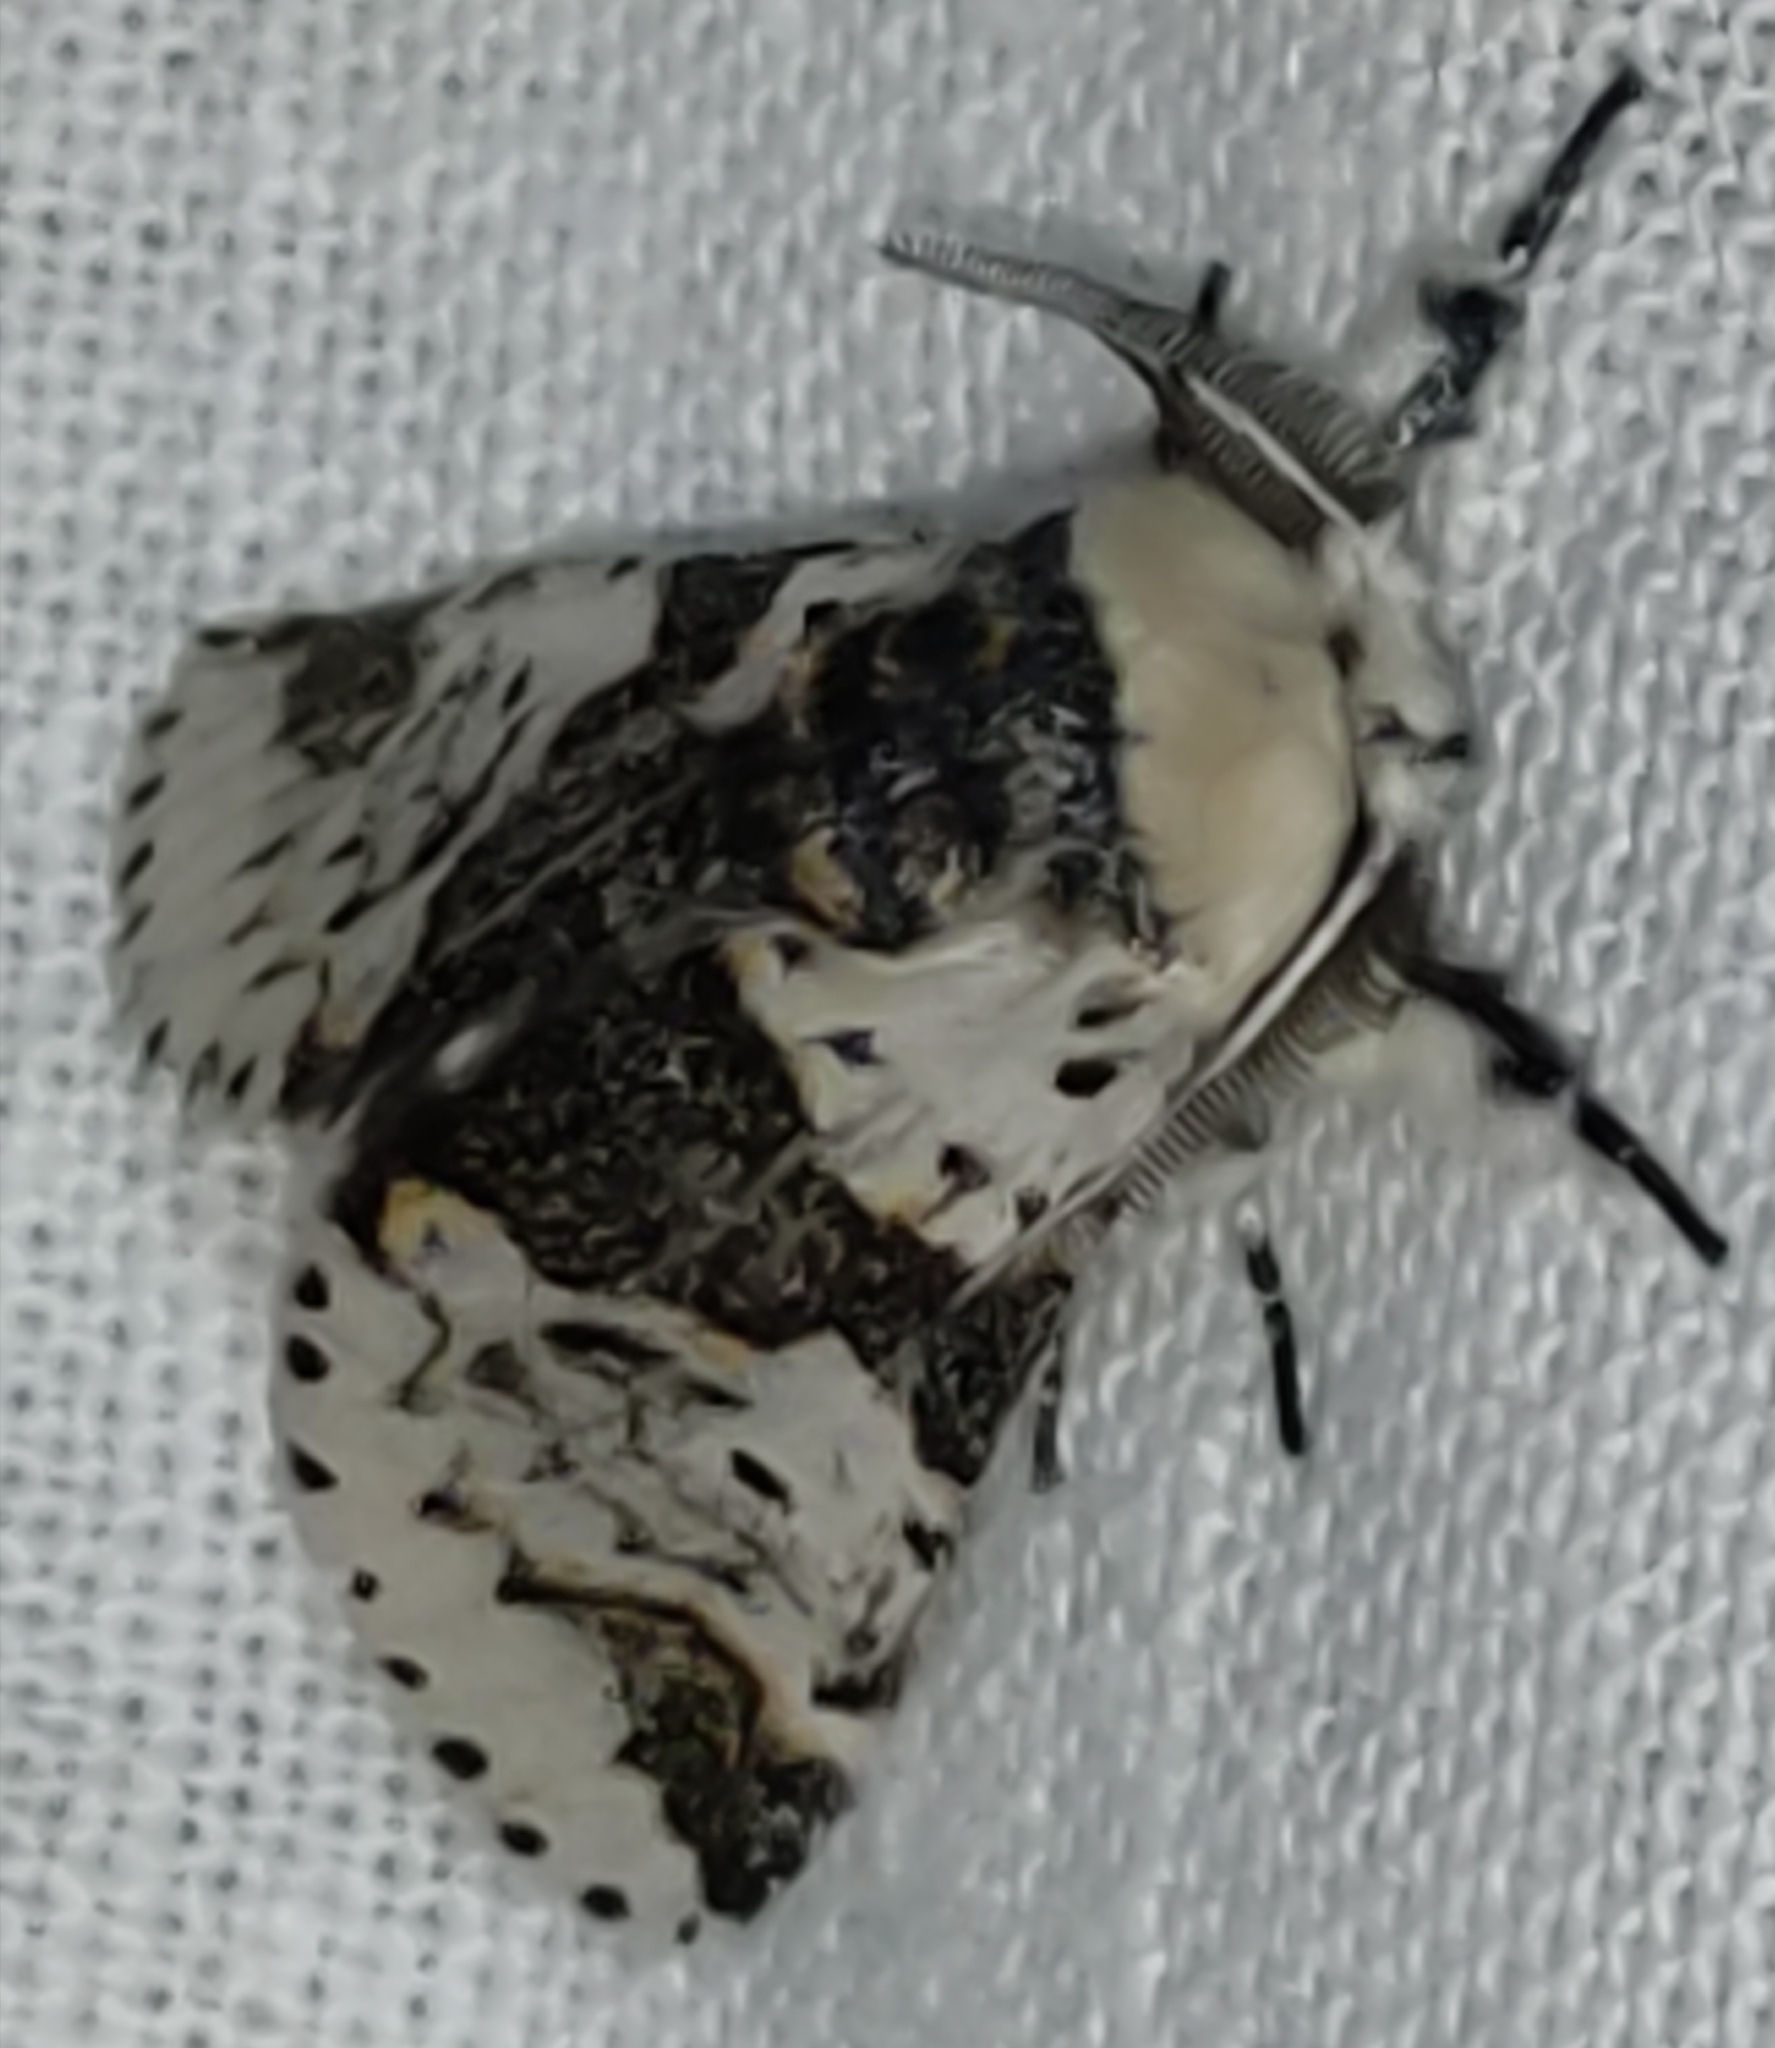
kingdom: Animalia
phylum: Arthropoda
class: Insecta
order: Lepidoptera
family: Notodontidae
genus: Furcula
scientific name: Furcula bicuspis
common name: Alder kitten
